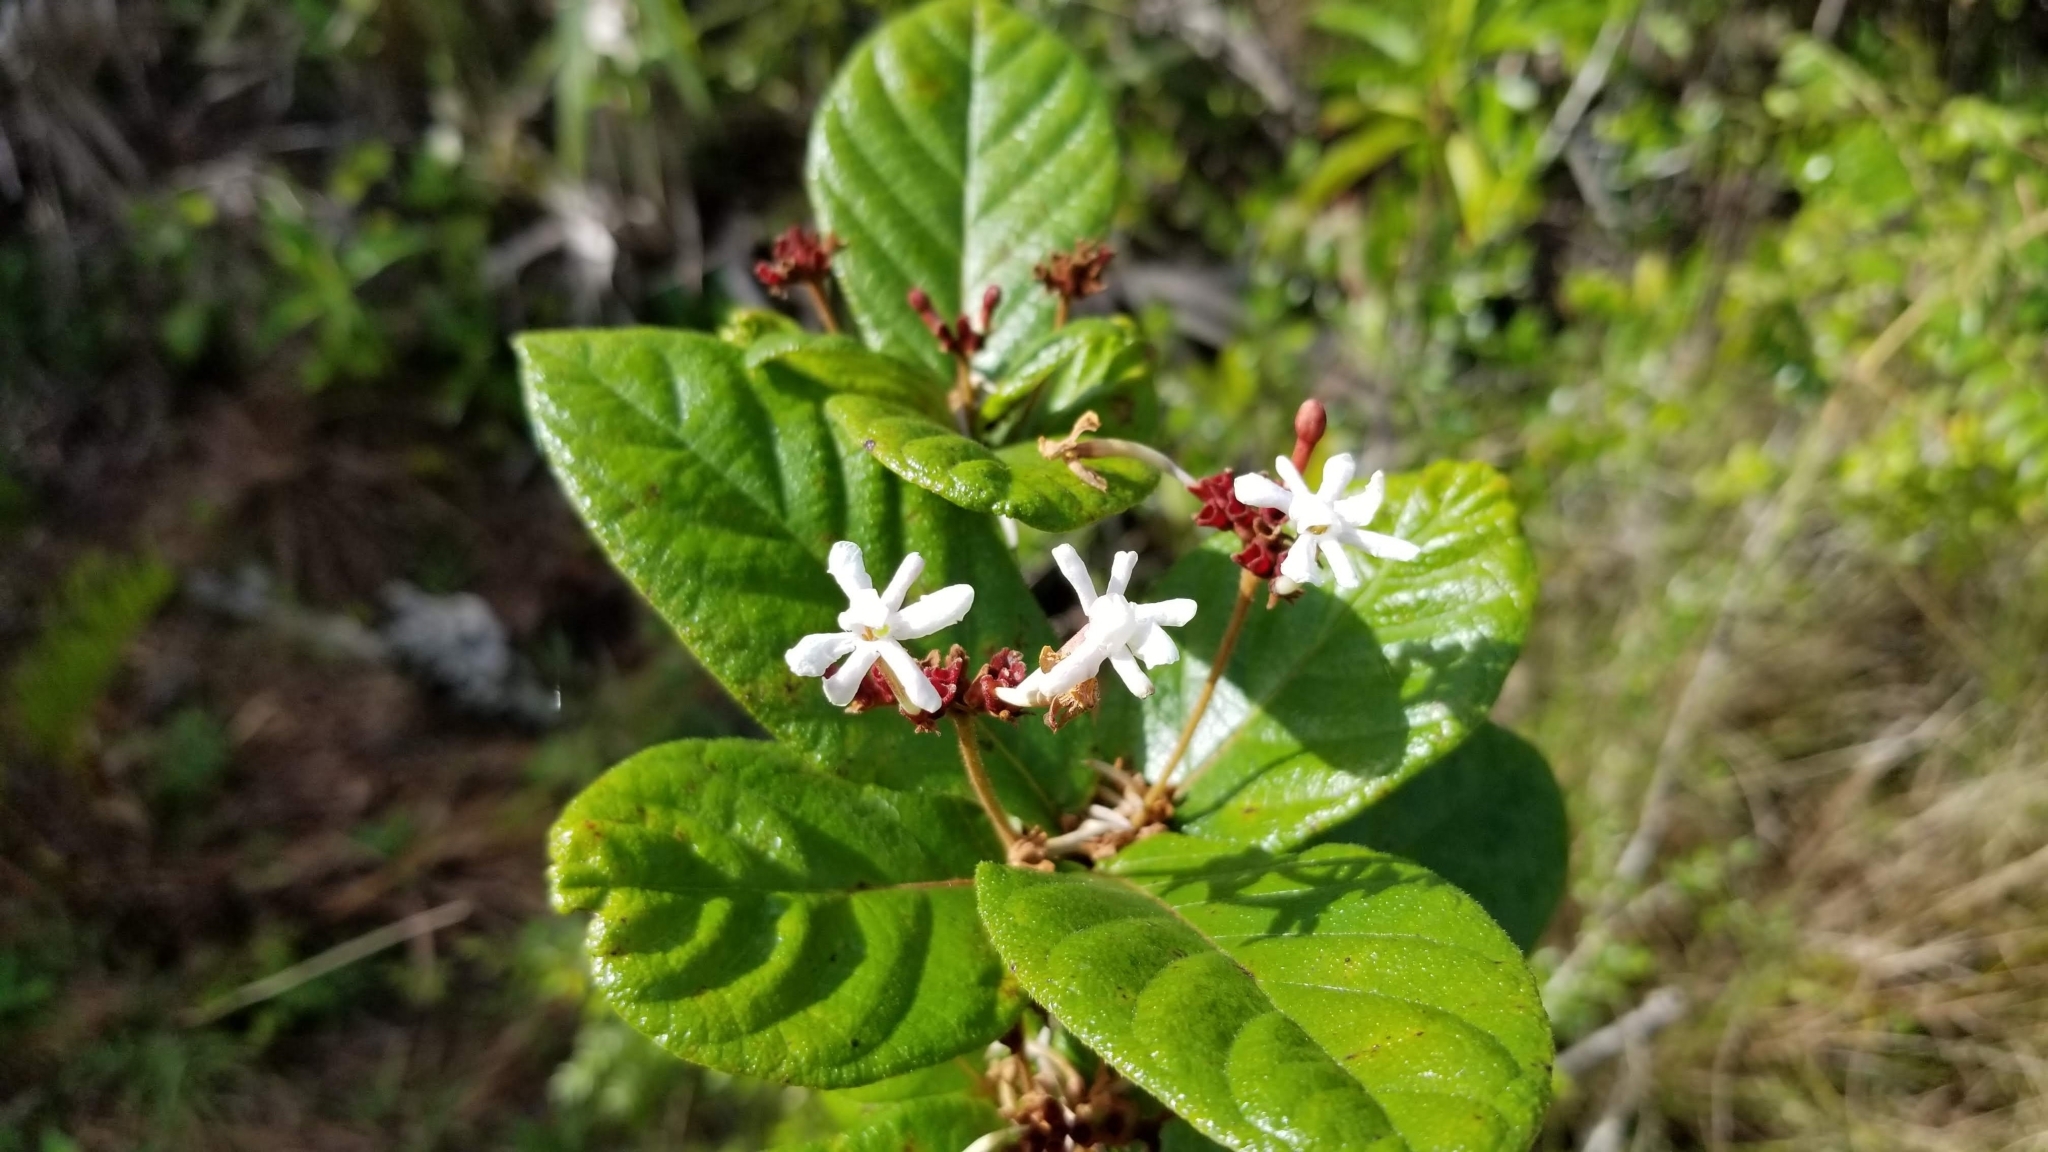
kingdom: Plantae
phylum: Tracheophyta
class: Magnoliopsida
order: Gentianales
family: Rubiaceae
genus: Guettarda
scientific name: Guettarda scabra
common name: Pigeon bay
